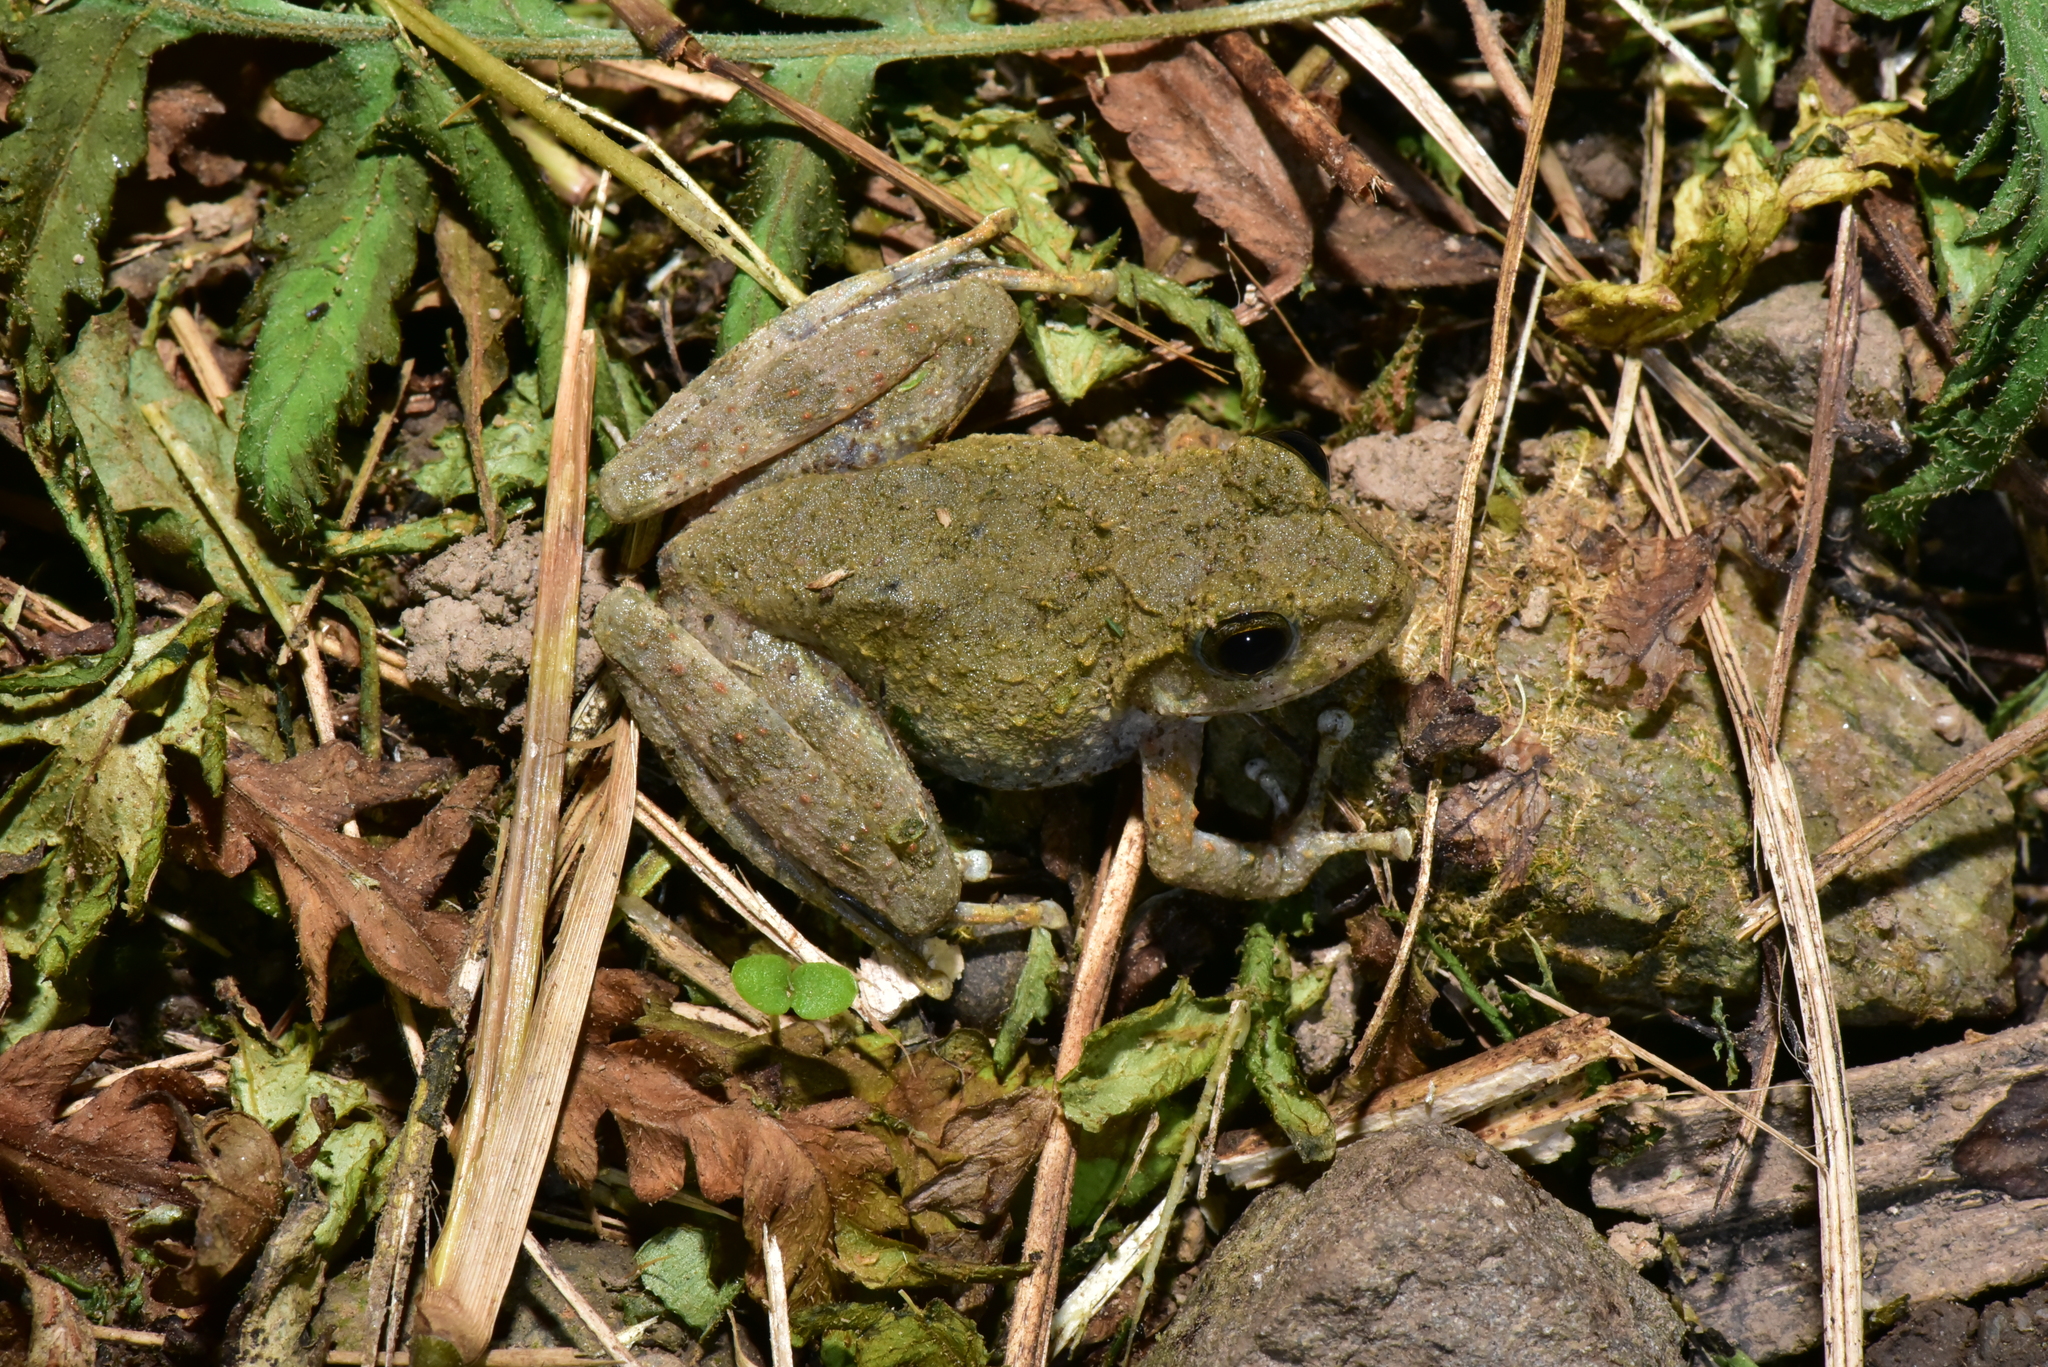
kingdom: Animalia
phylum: Chordata
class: Amphibia
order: Anura
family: Rhacophoridae
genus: Buergeria
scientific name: Buergeria otai
